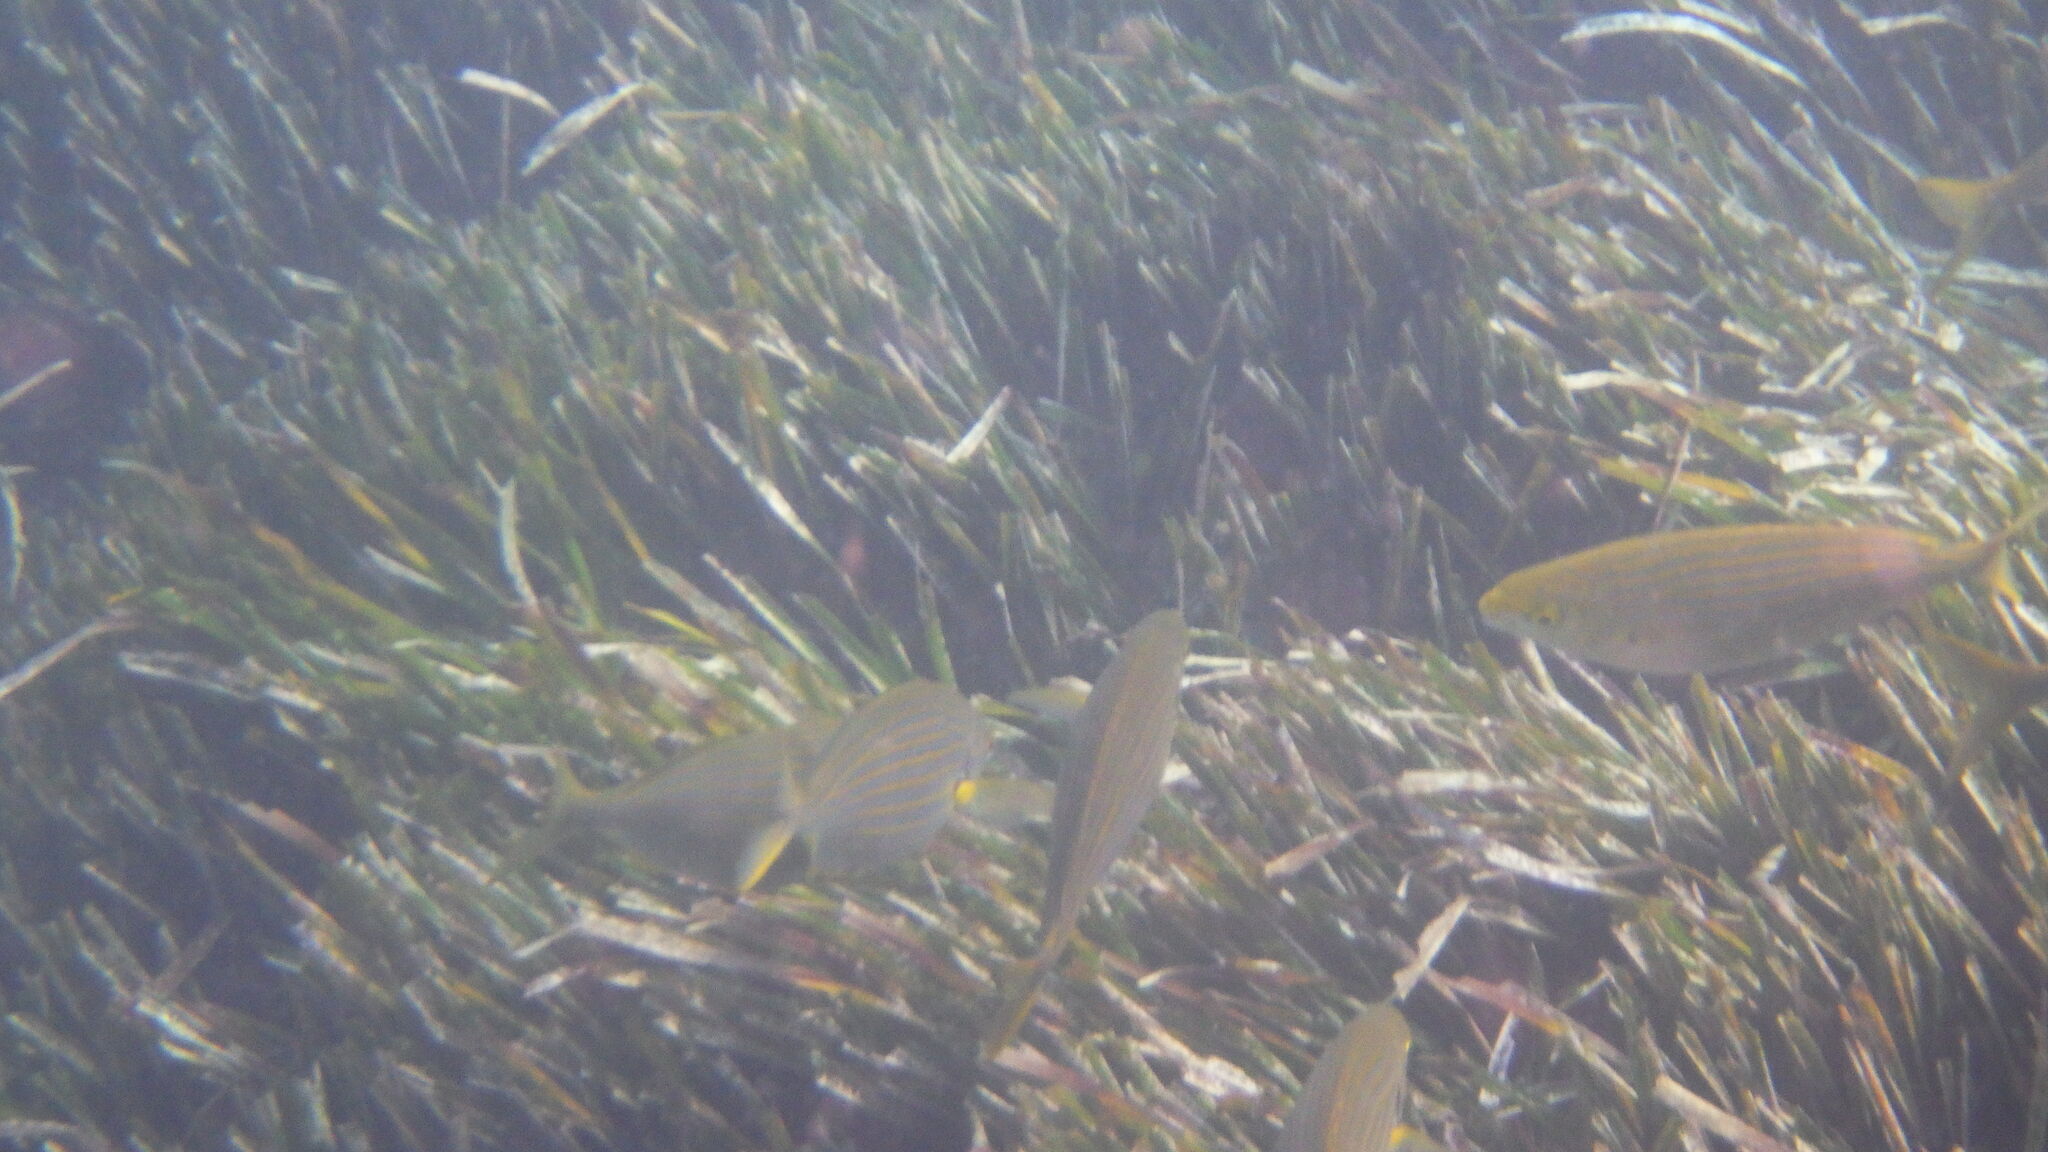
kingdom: Animalia
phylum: Chordata
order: Perciformes
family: Sparidae
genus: Sarpa
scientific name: Sarpa salpa
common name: Salema
